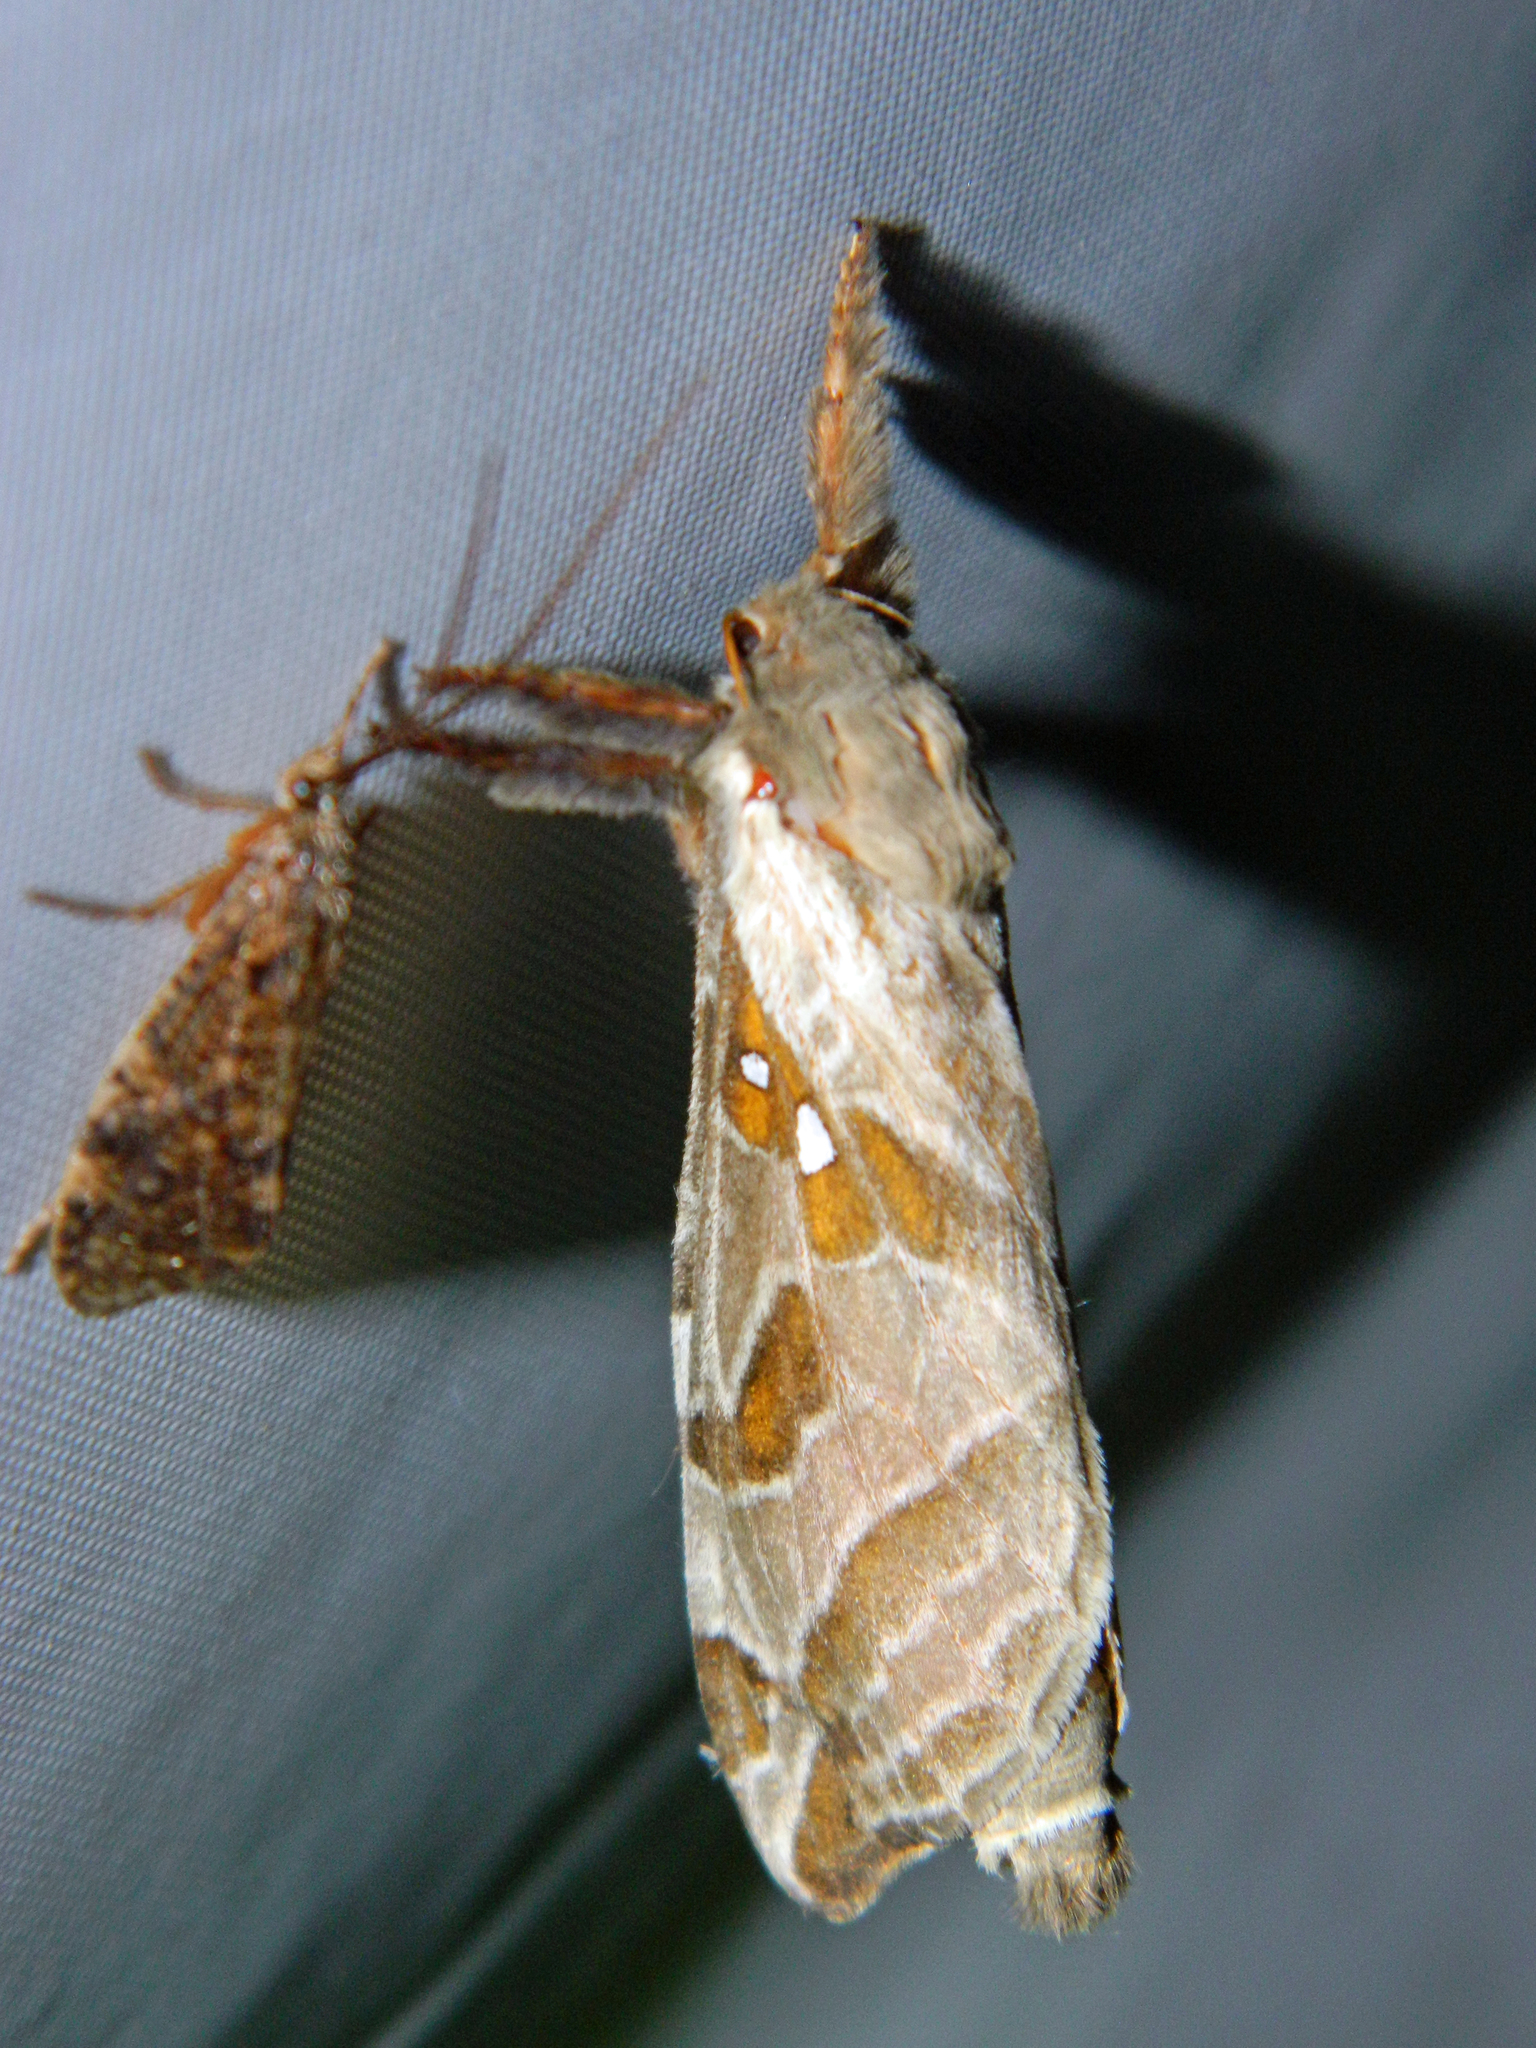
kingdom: Animalia
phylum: Arthropoda
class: Insecta
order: Lepidoptera
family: Hepialidae
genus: Sthenopis
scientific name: Sthenopis argenteomaculatus
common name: Silver-spotted ghost moth
